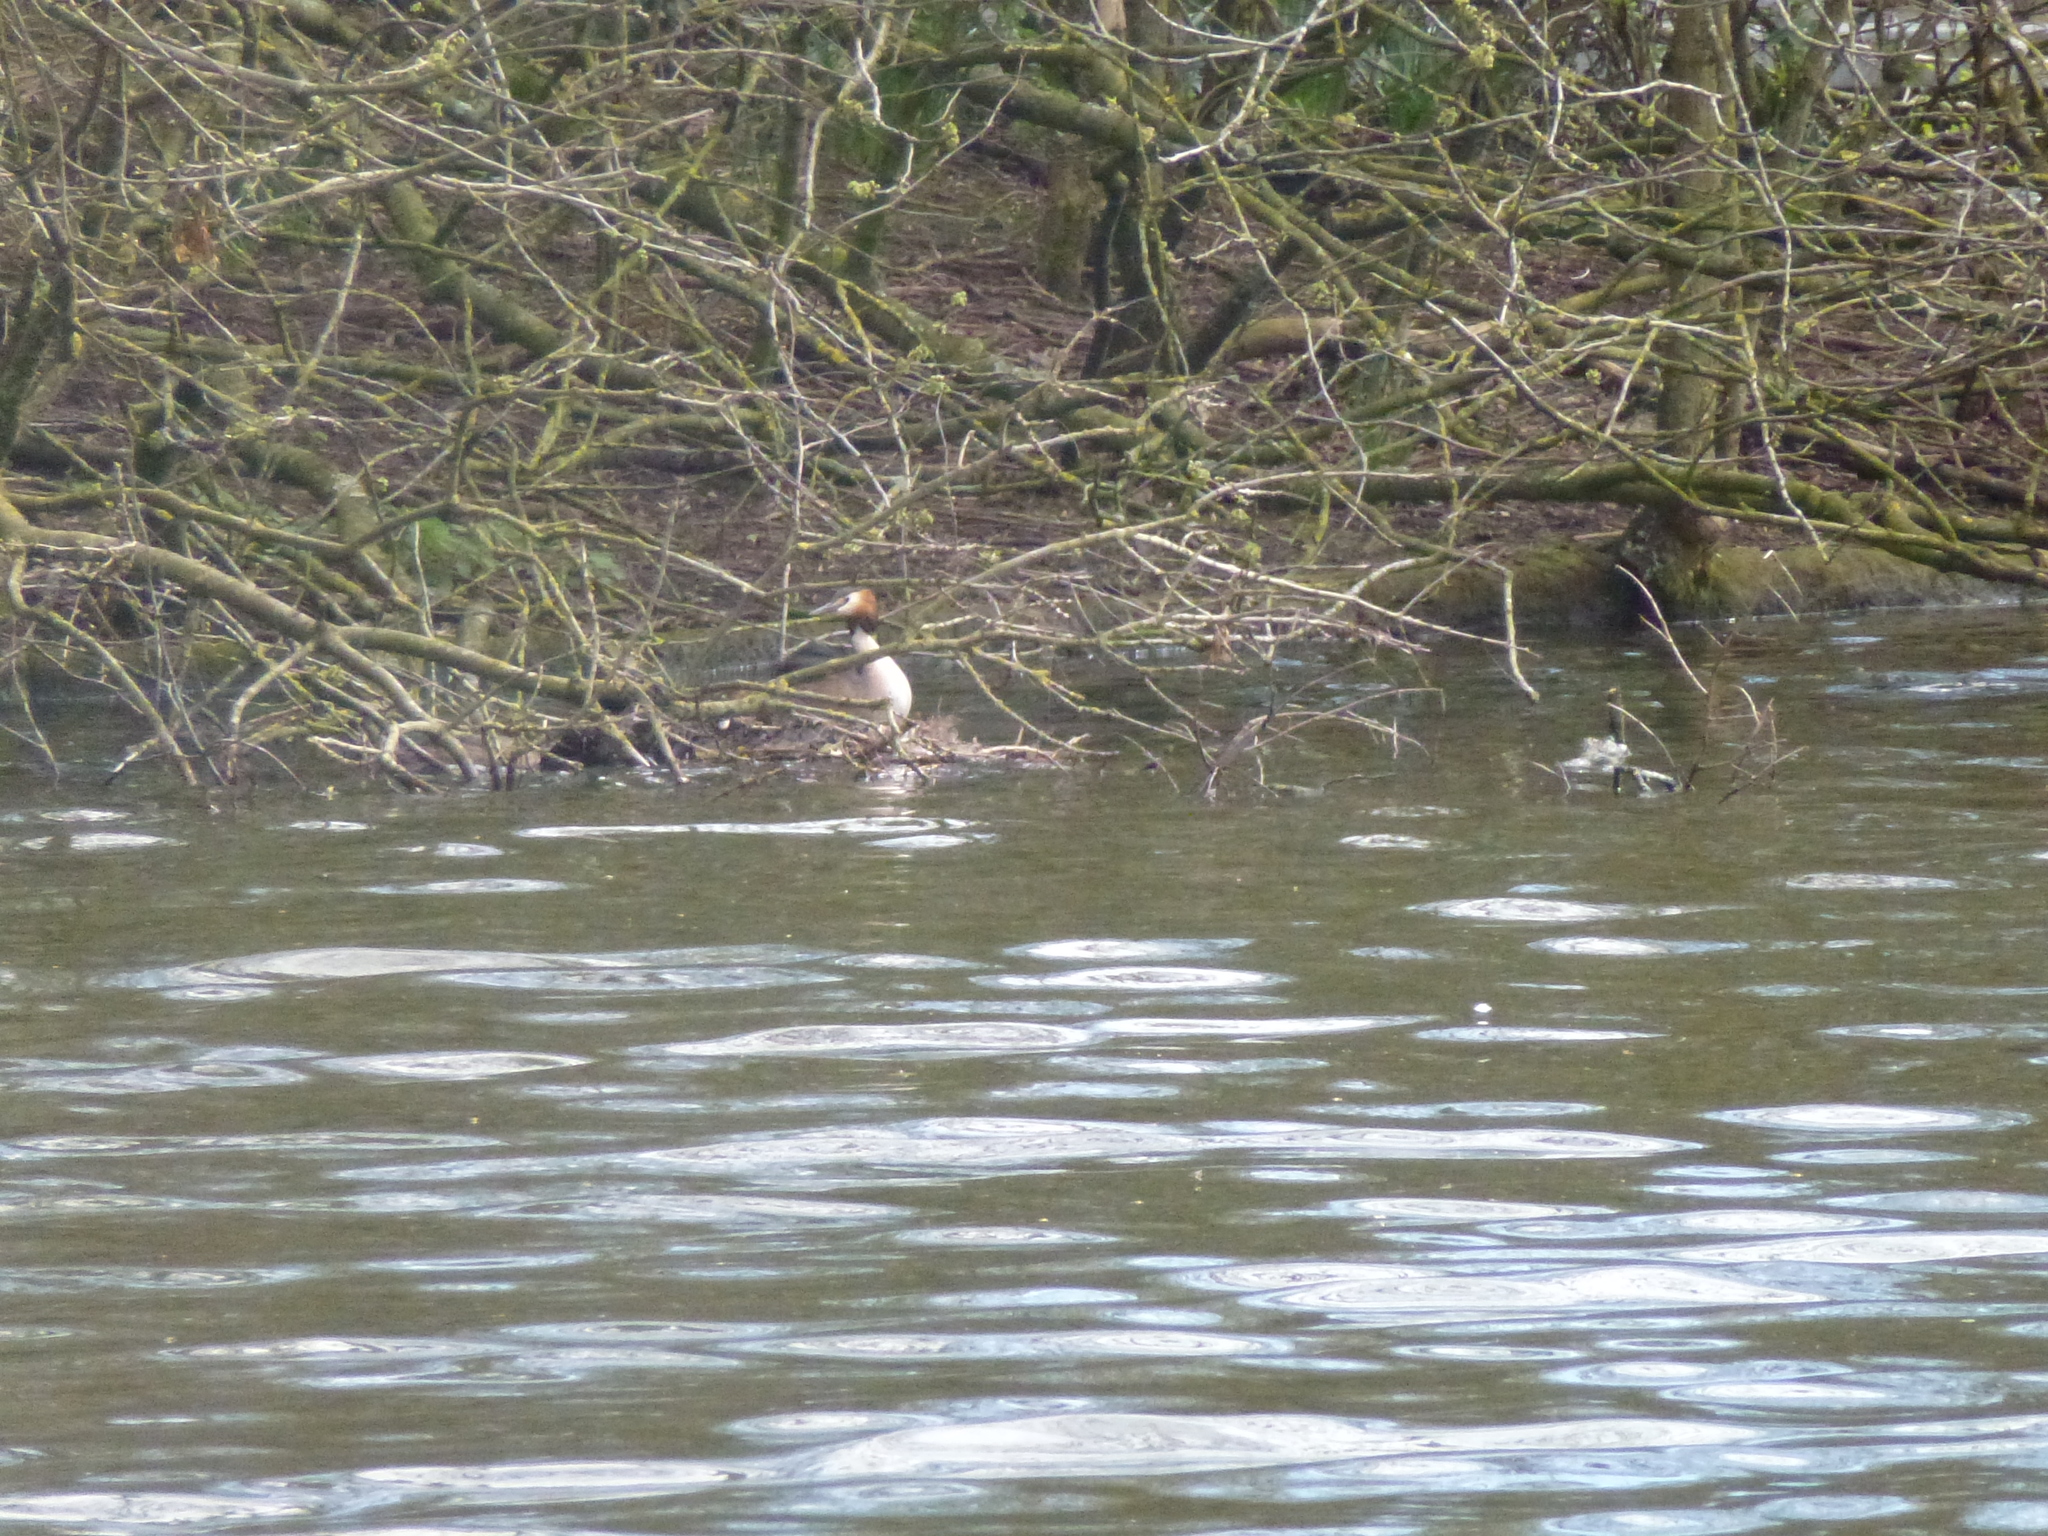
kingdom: Animalia
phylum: Chordata
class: Aves
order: Podicipediformes
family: Podicipedidae
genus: Podiceps
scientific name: Podiceps cristatus
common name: Great crested grebe
